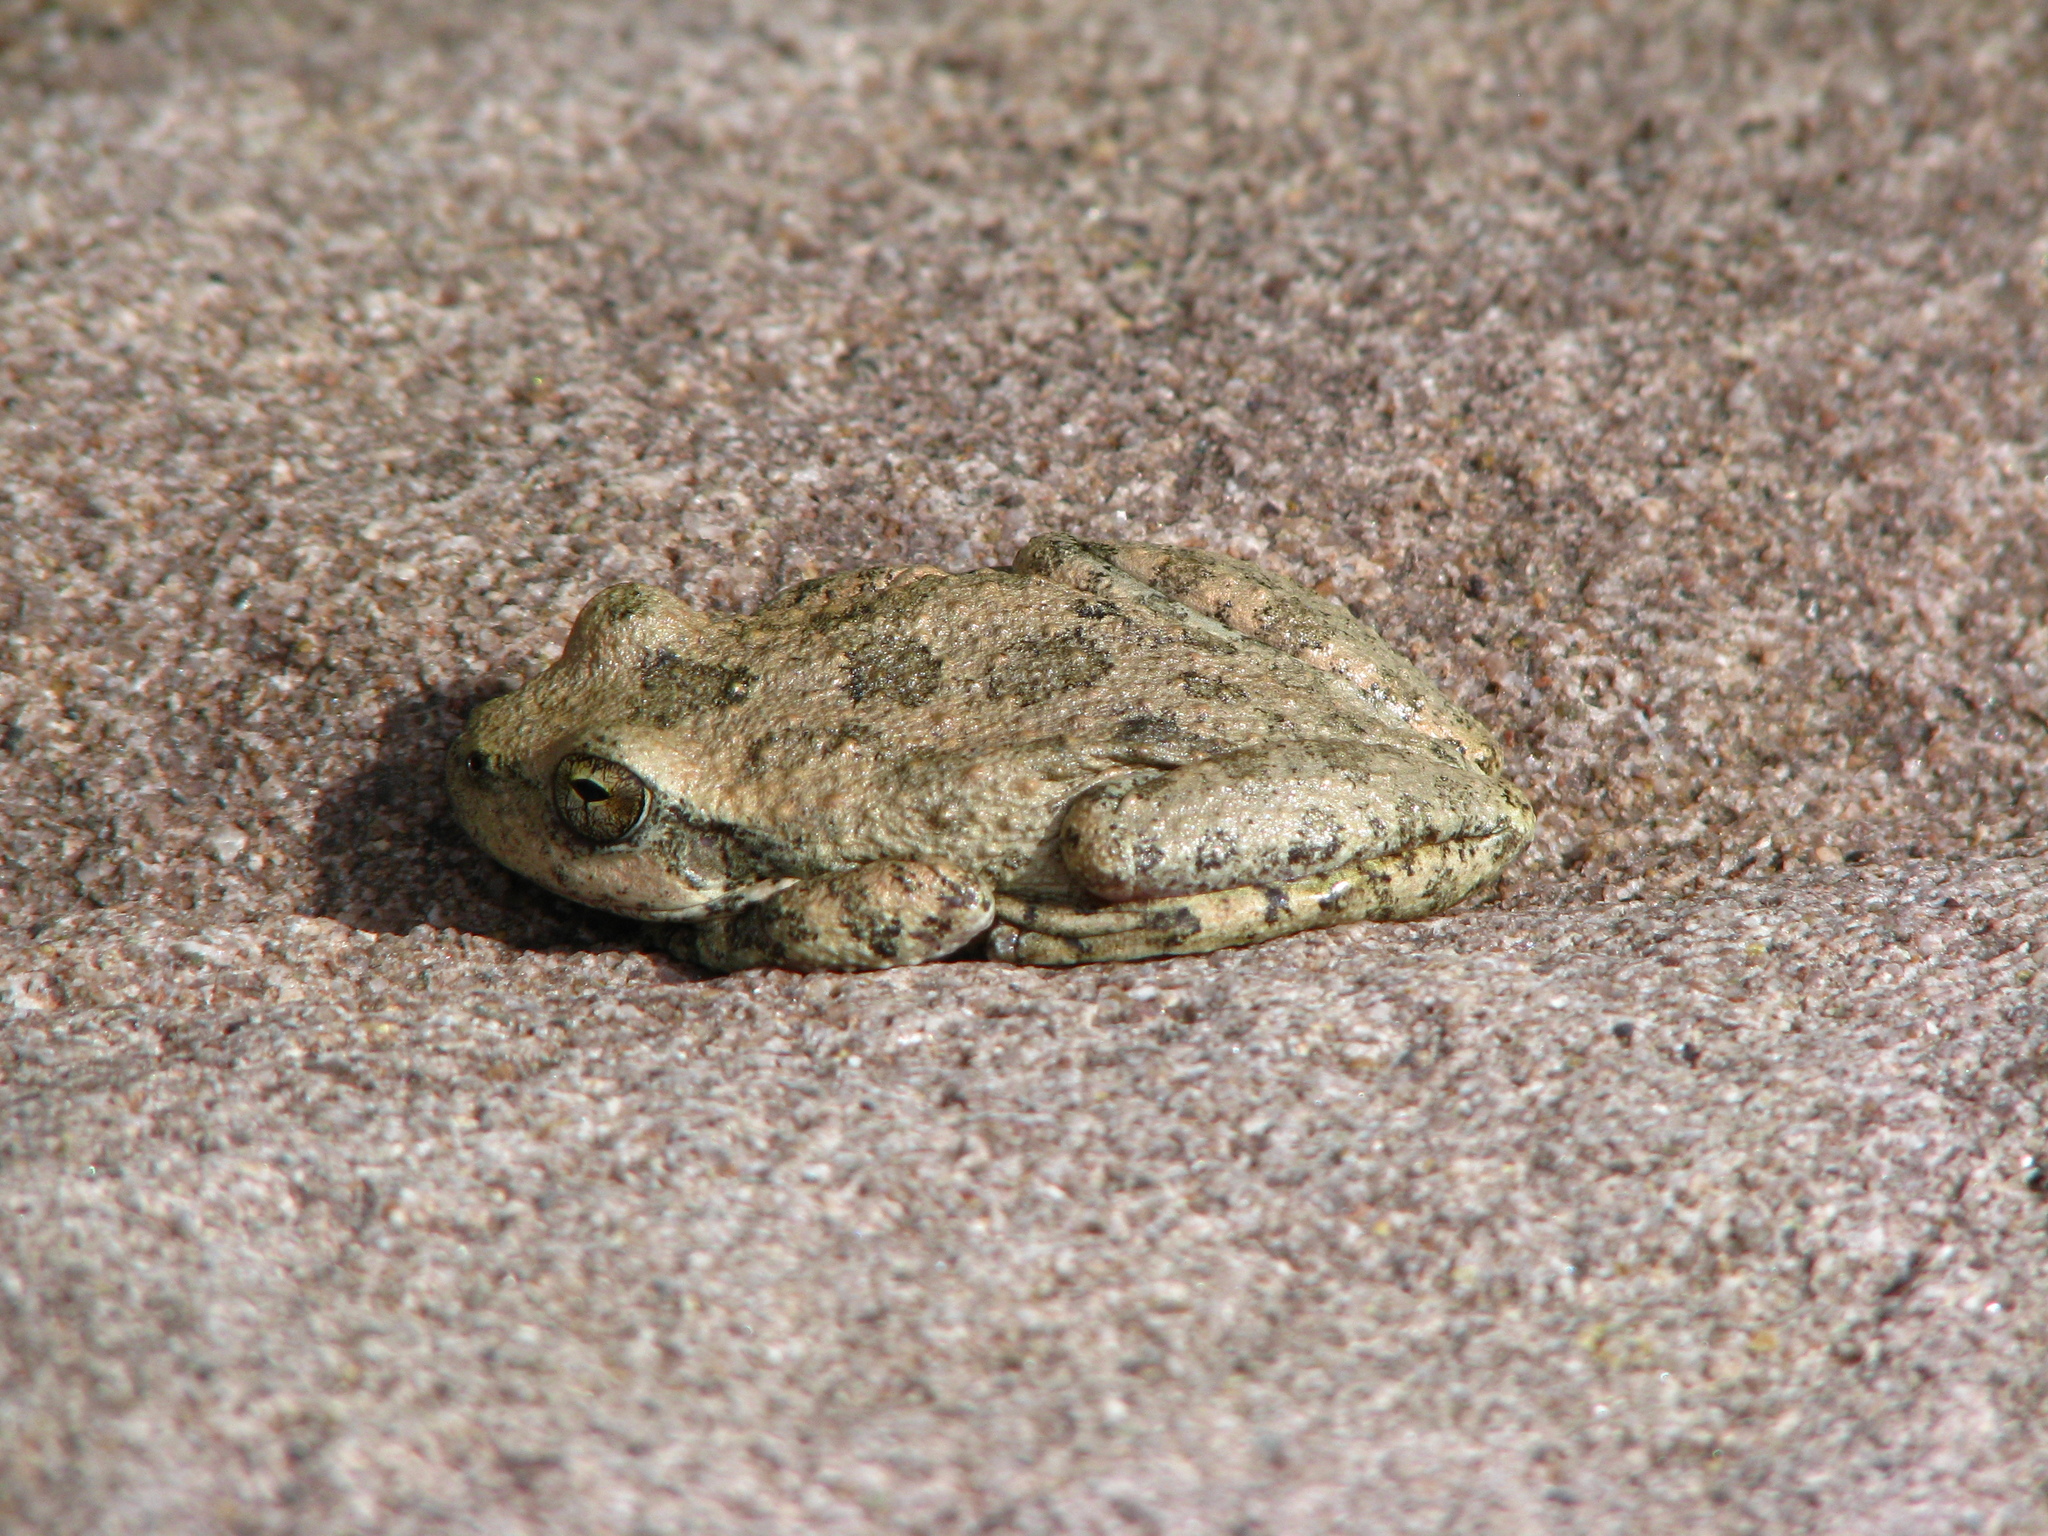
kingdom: Animalia
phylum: Chordata
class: Amphibia
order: Anura
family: Hylidae
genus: Pseudacris
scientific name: Pseudacris cadaverina
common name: California chorus frog
